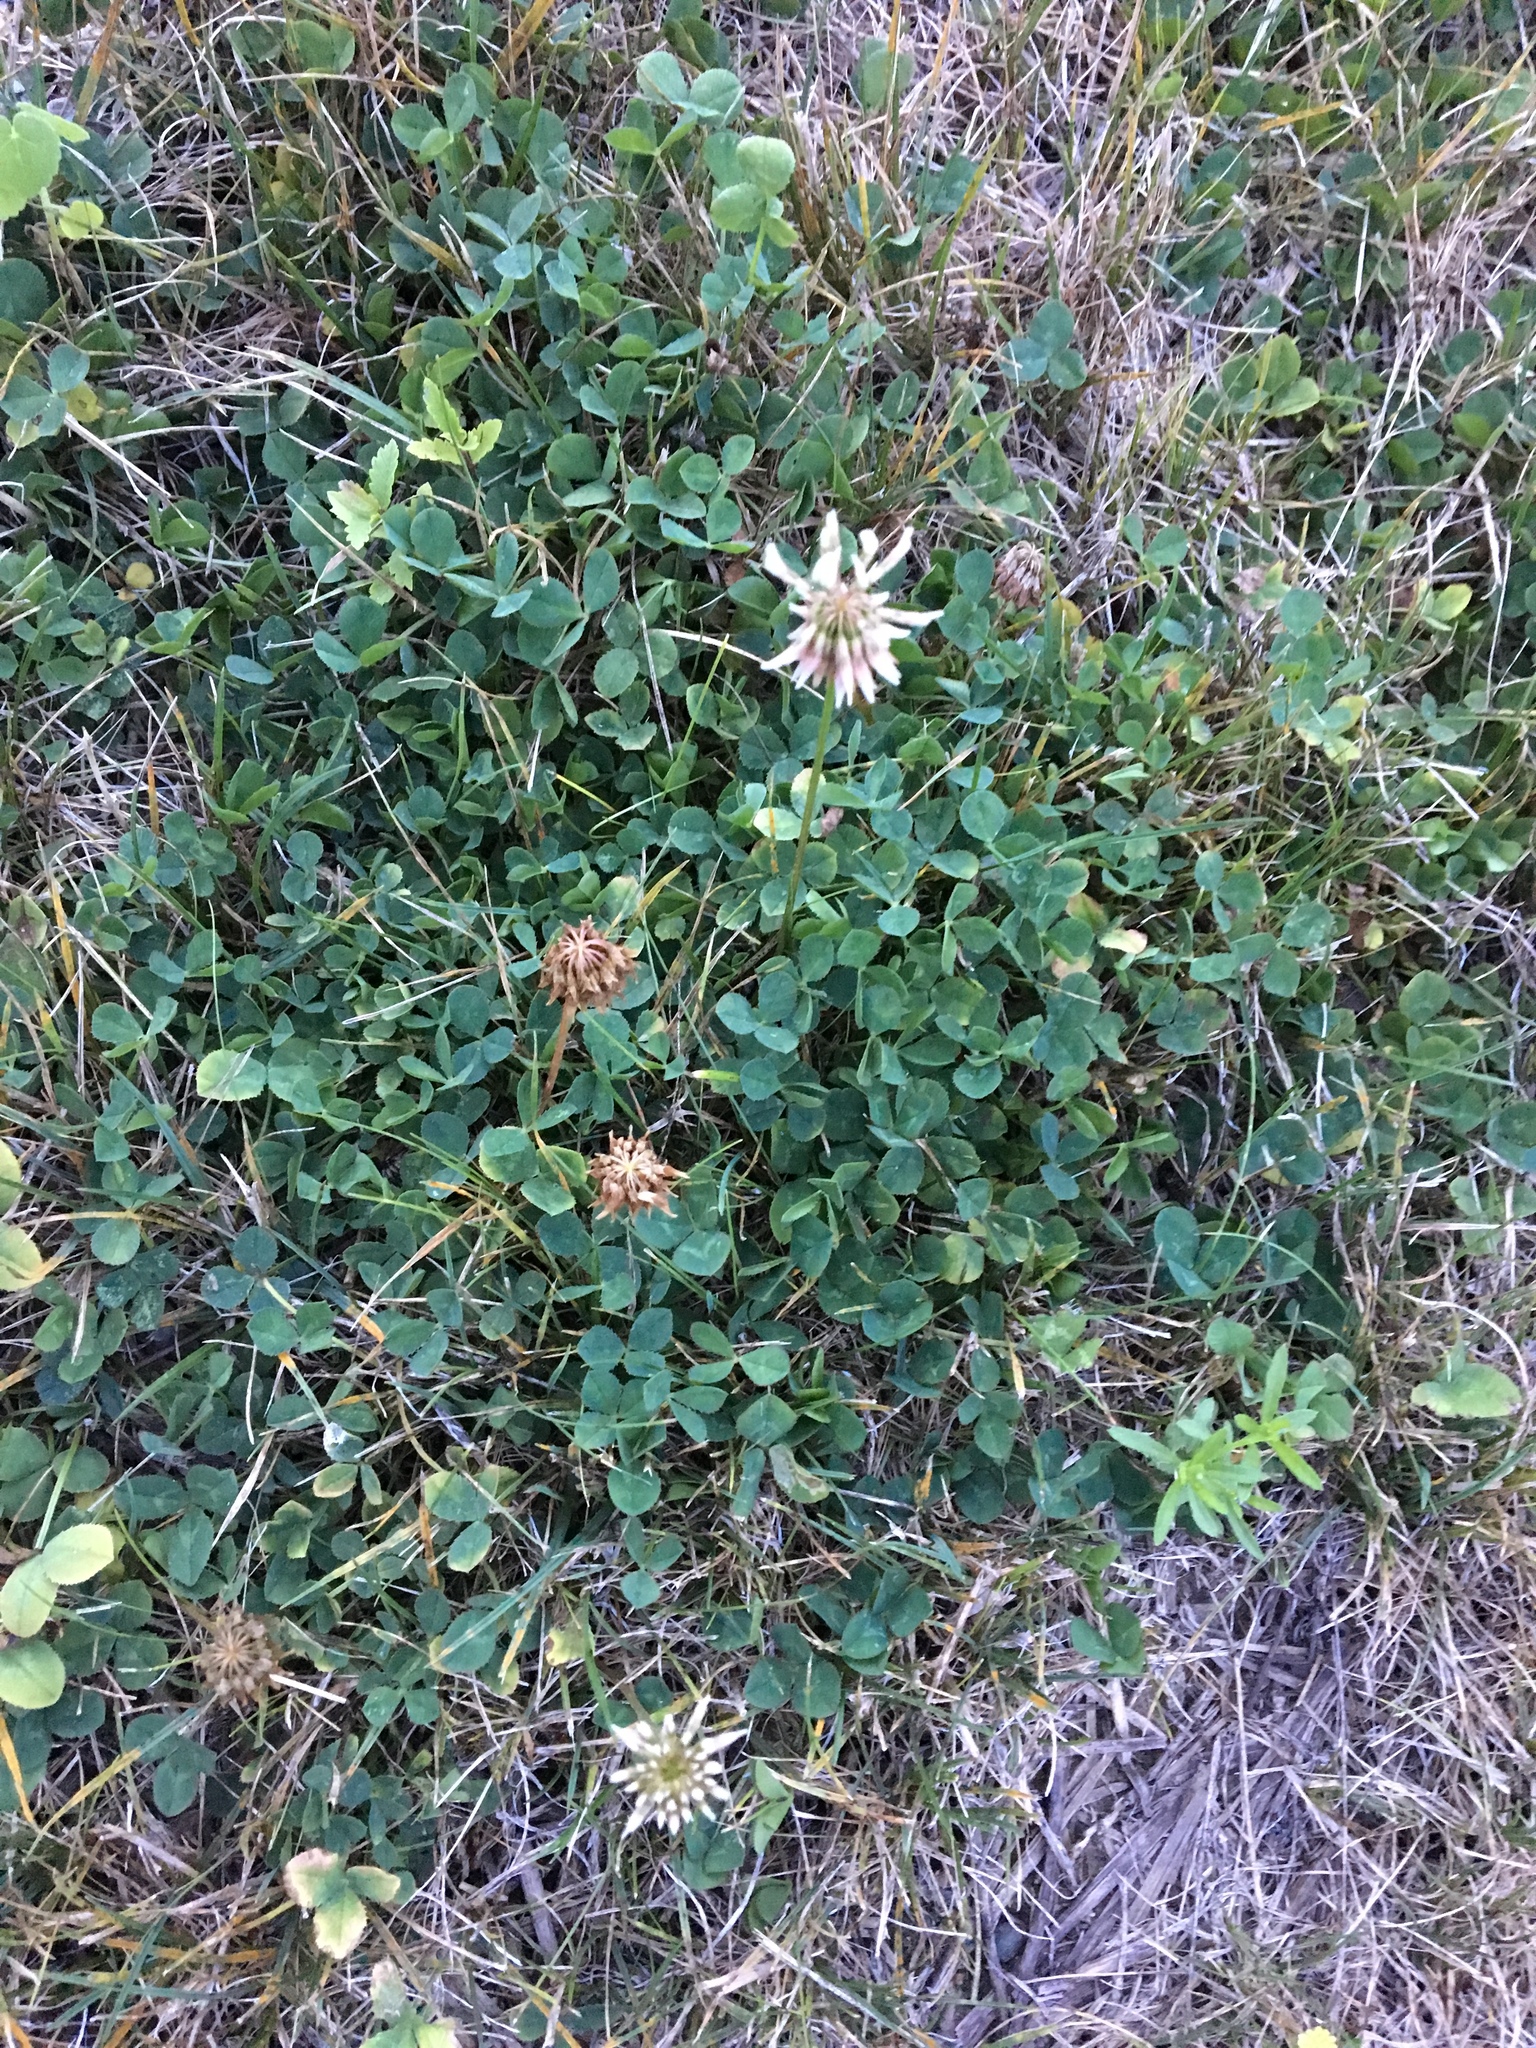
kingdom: Plantae
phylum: Tracheophyta
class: Magnoliopsida
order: Fabales
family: Fabaceae
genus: Trifolium
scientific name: Trifolium repens
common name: White clover
